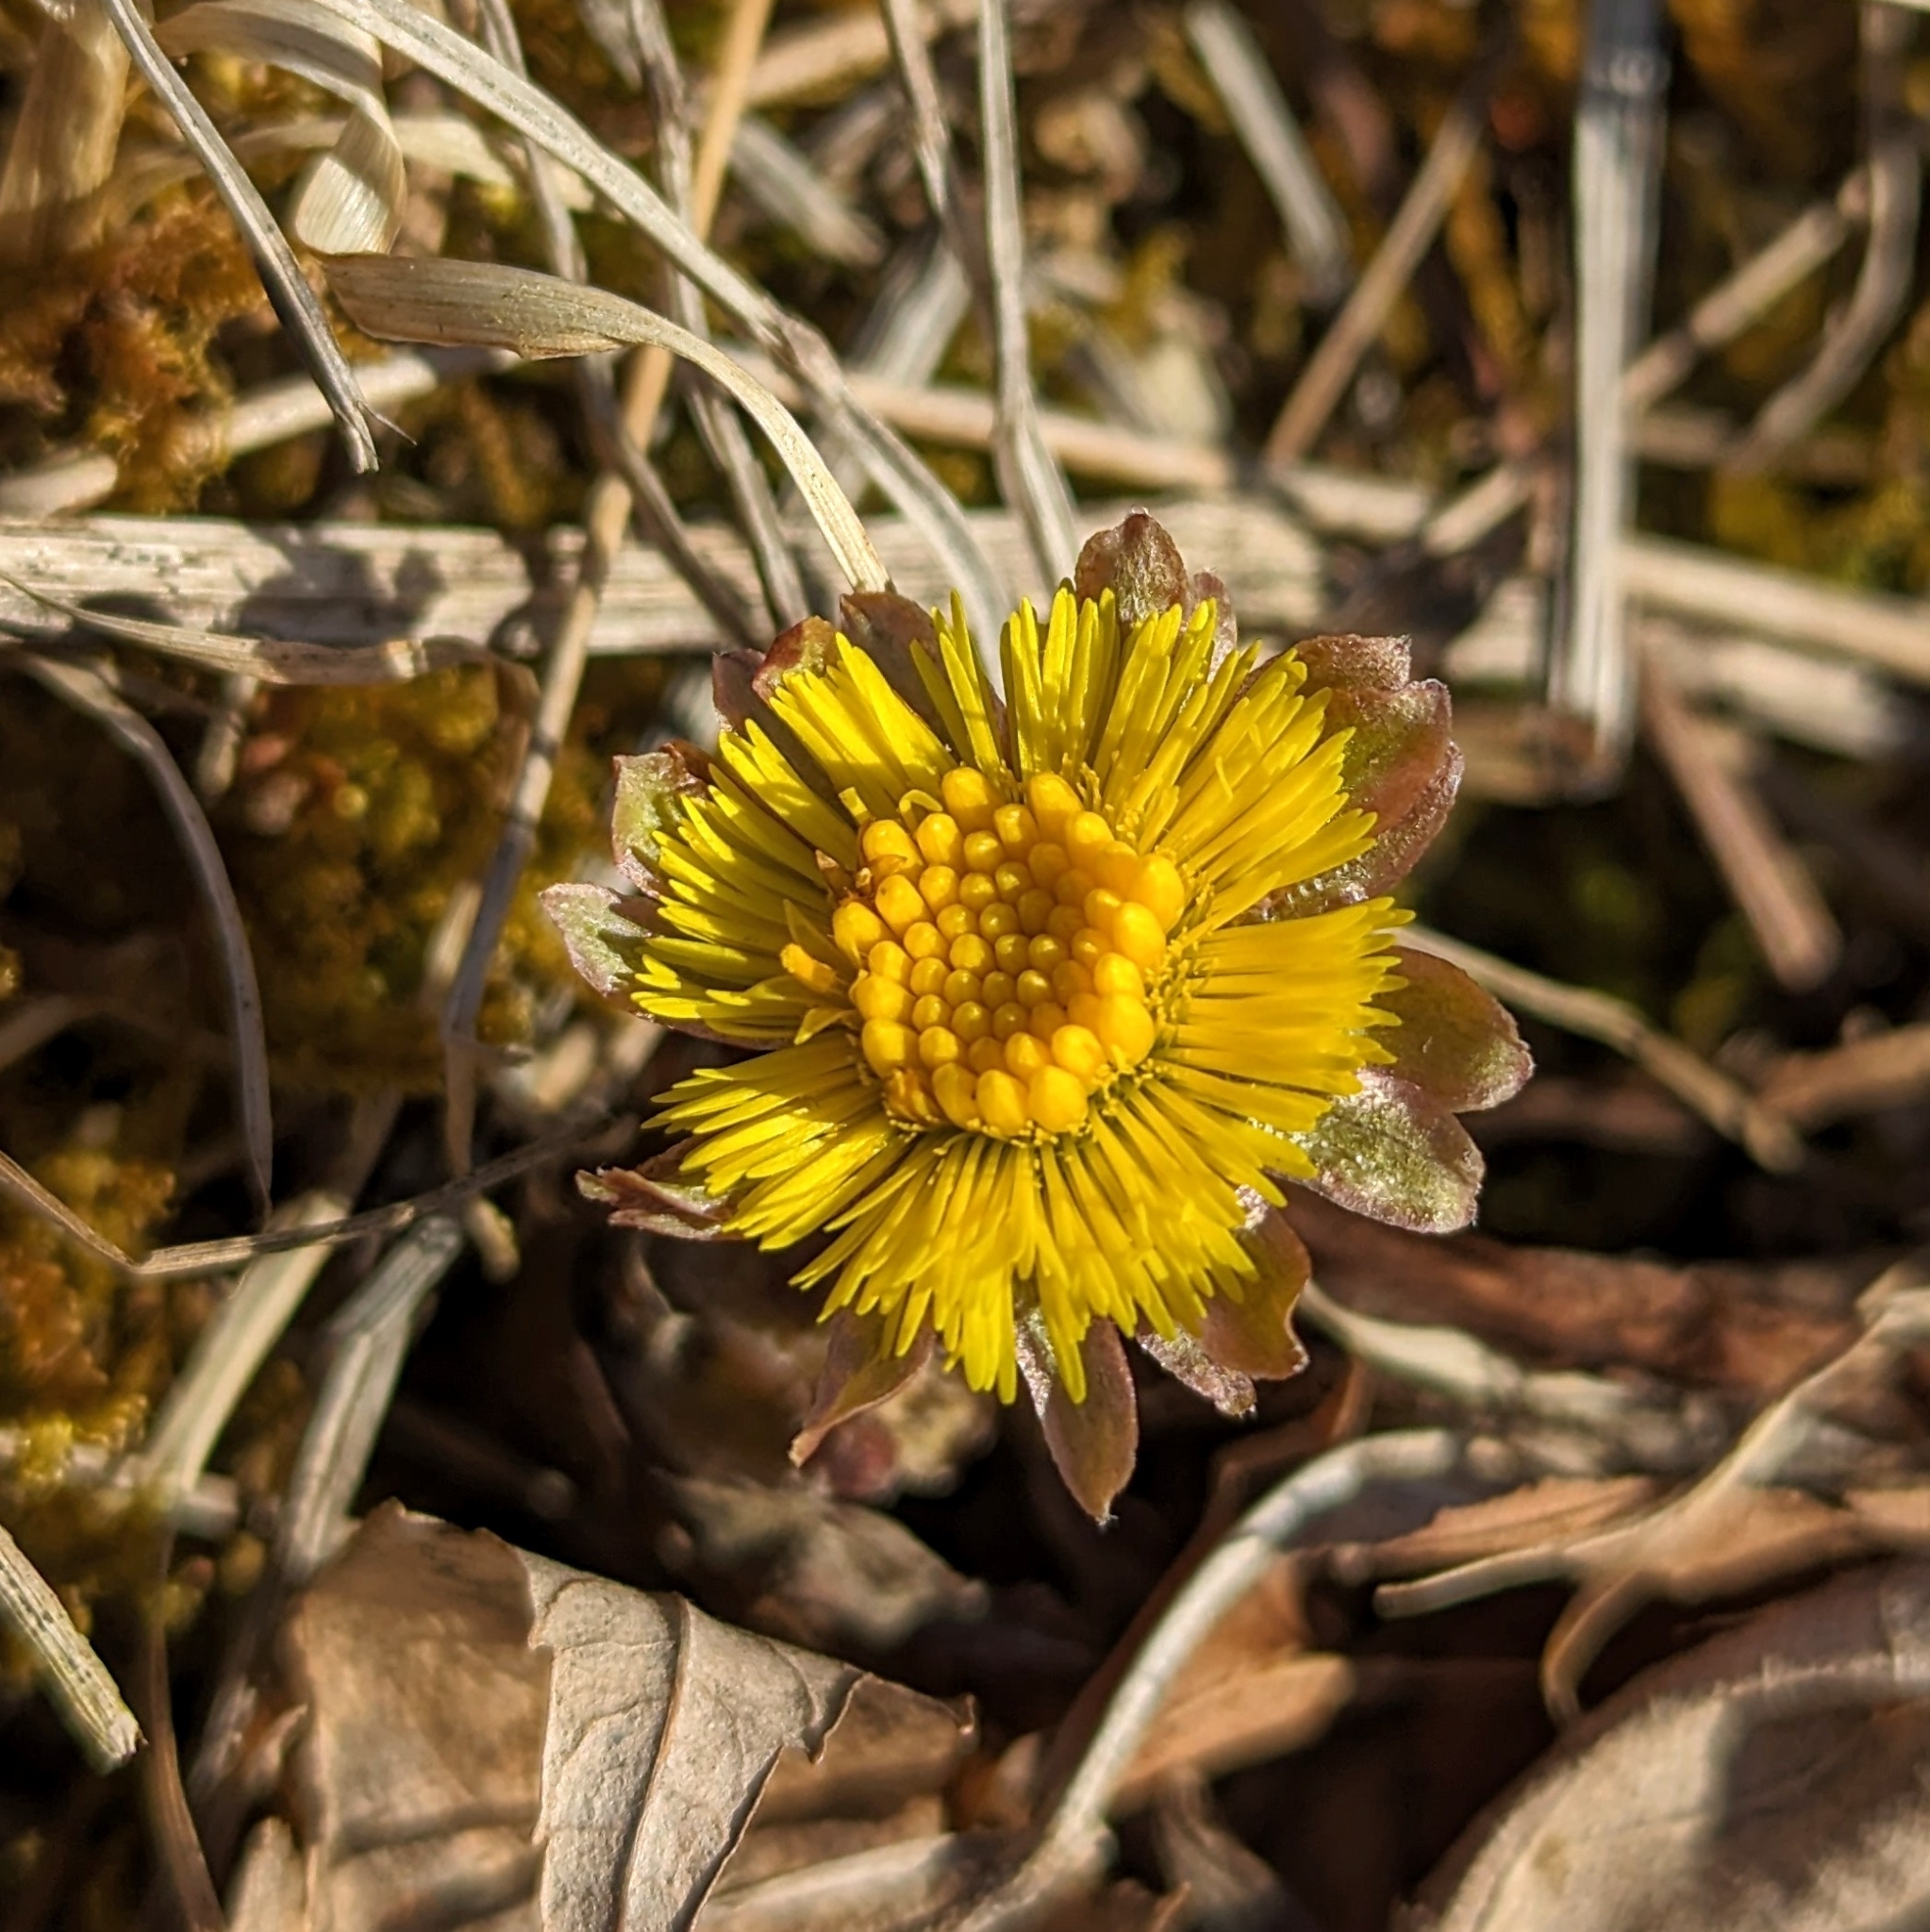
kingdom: Plantae
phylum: Tracheophyta
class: Magnoliopsida
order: Asterales
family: Asteraceae
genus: Tussilago
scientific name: Tussilago farfara
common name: Coltsfoot
